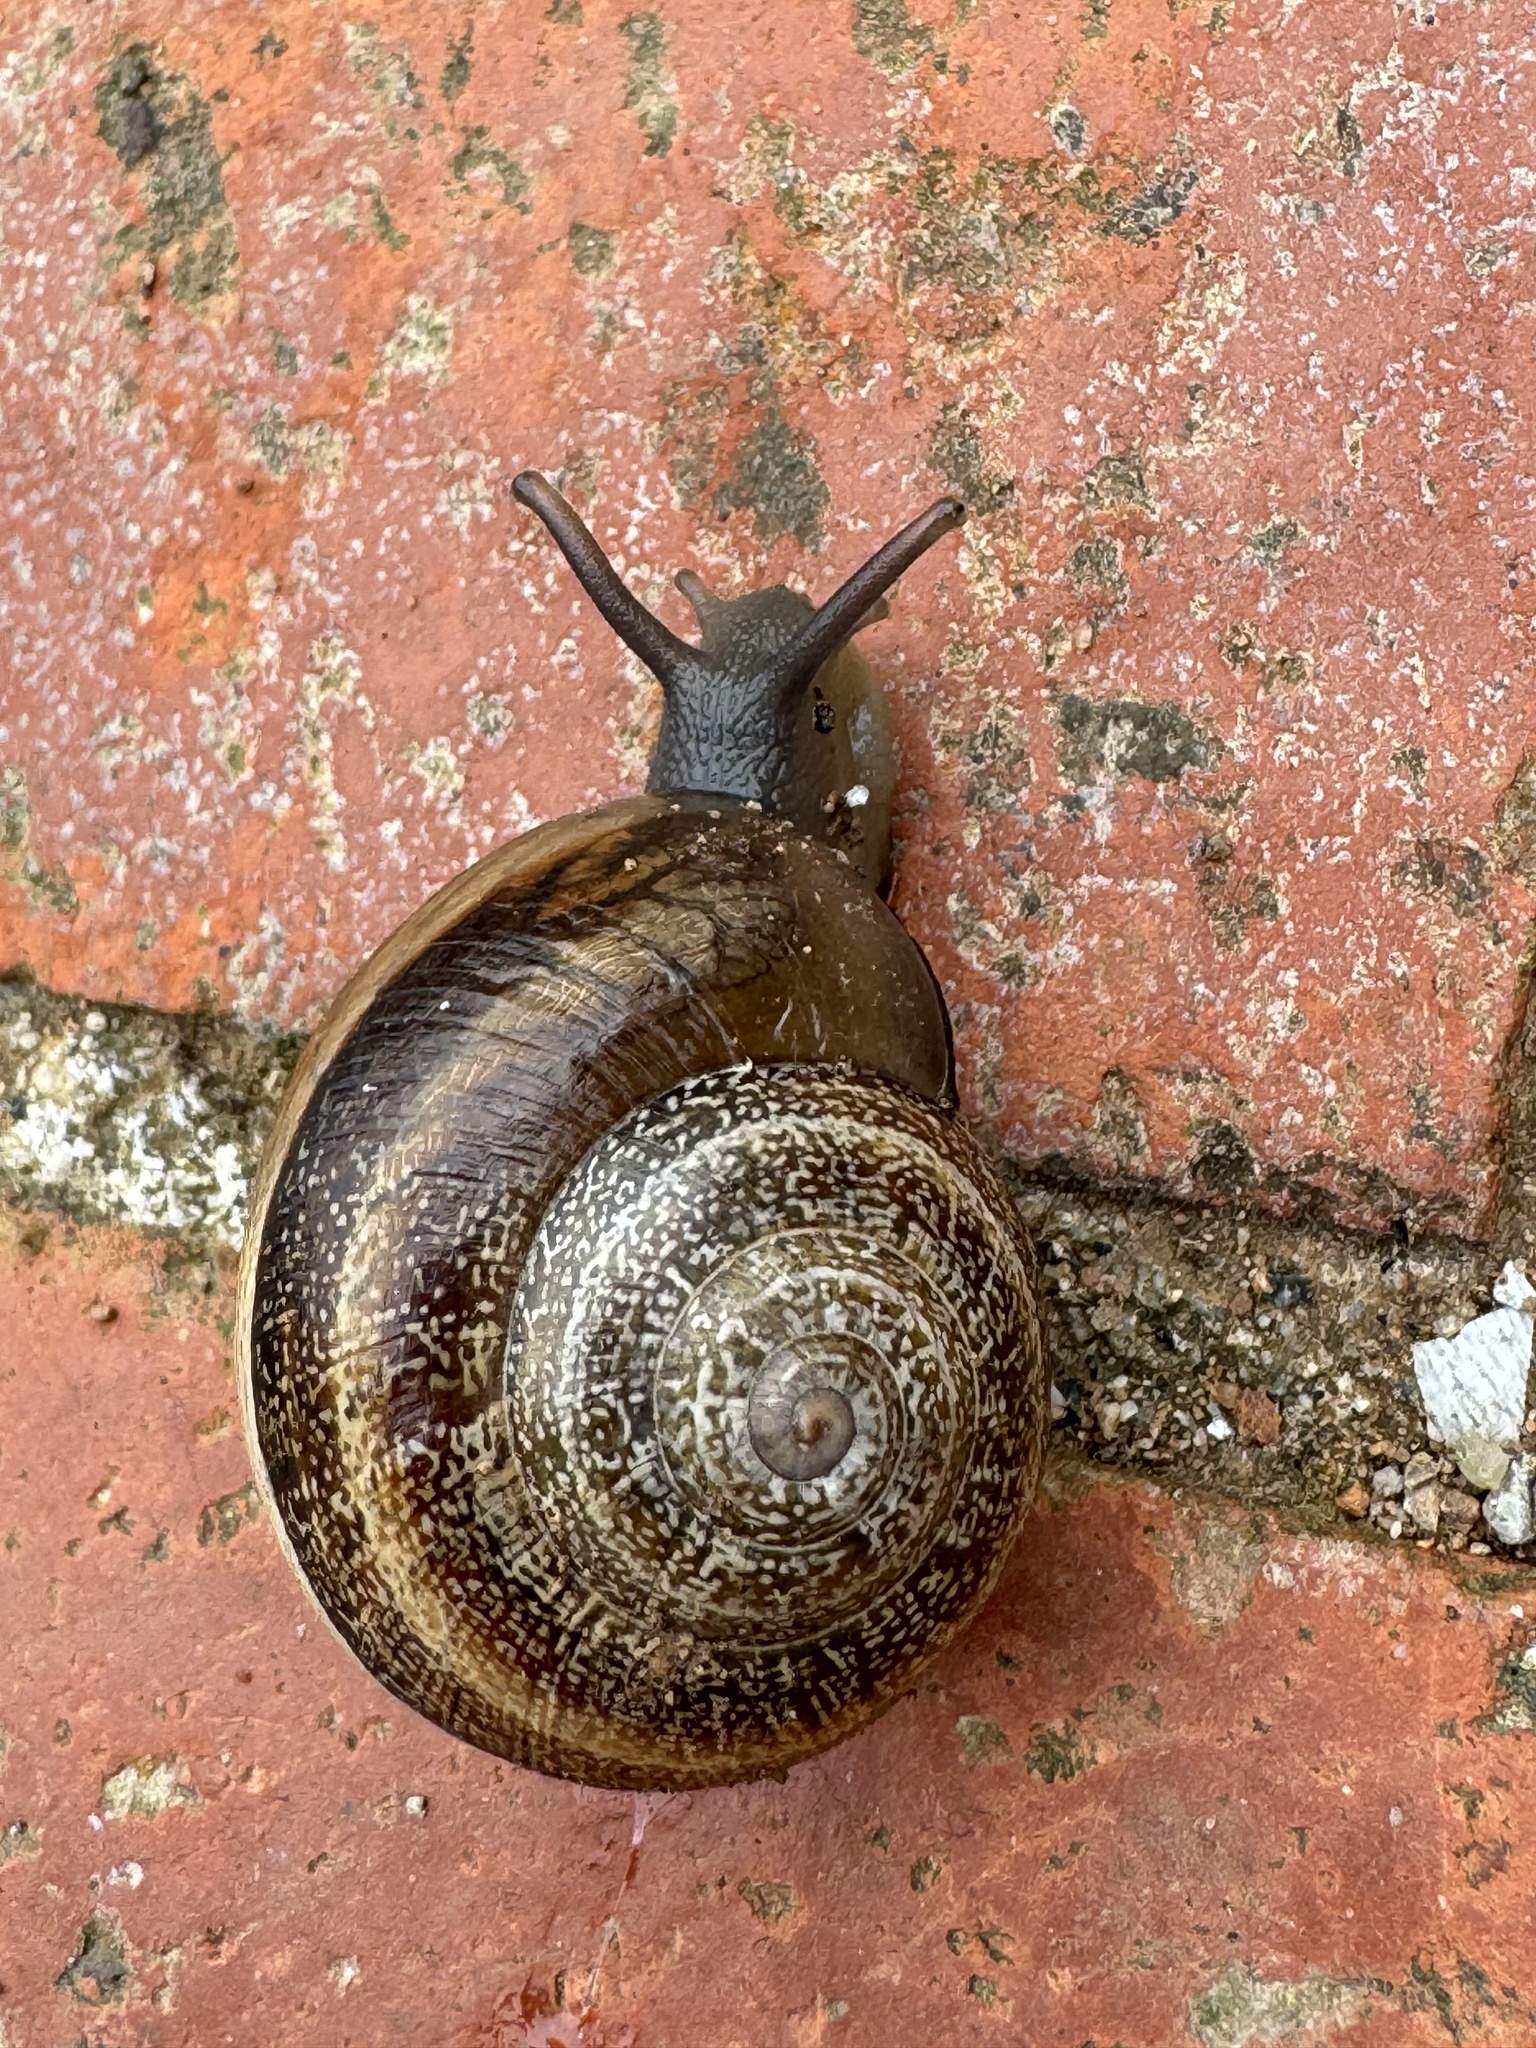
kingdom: Animalia
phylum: Mollusca
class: Gastropoda
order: Stylommatophora
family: Helicidae
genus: Otala
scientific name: Otala lactea
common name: Milk snail
